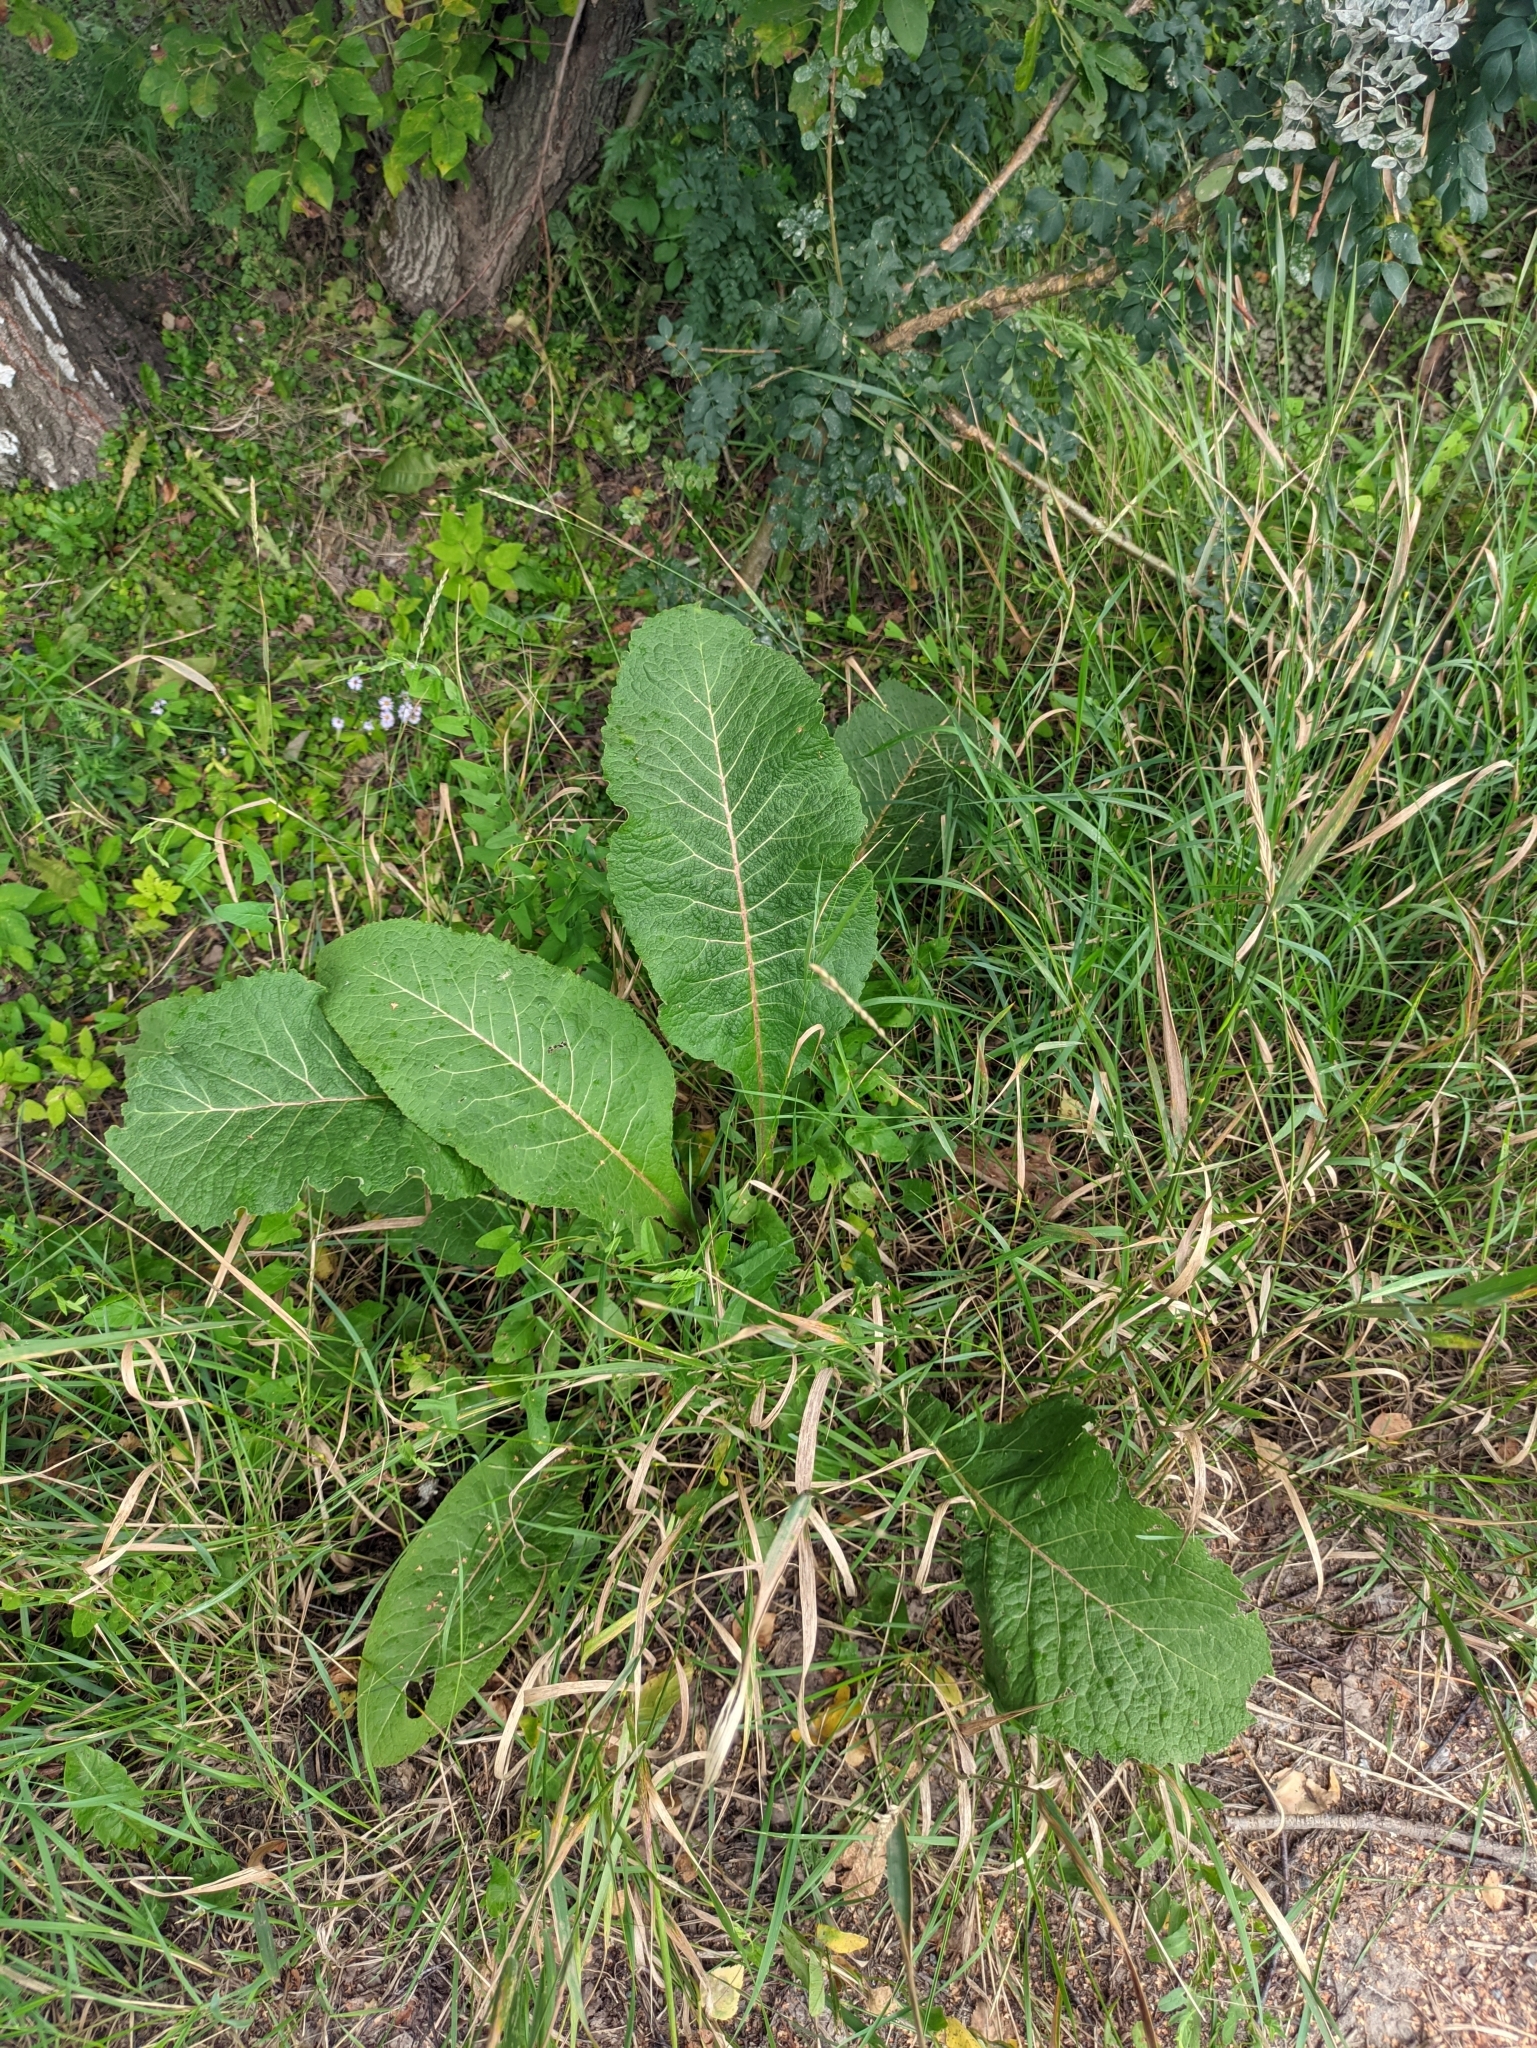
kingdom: Plantae
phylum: Tracheophyta
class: Magnoliopsida
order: Asterales
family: Asteraceae
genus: Inula
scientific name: Inula helenium
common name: Elecampane
